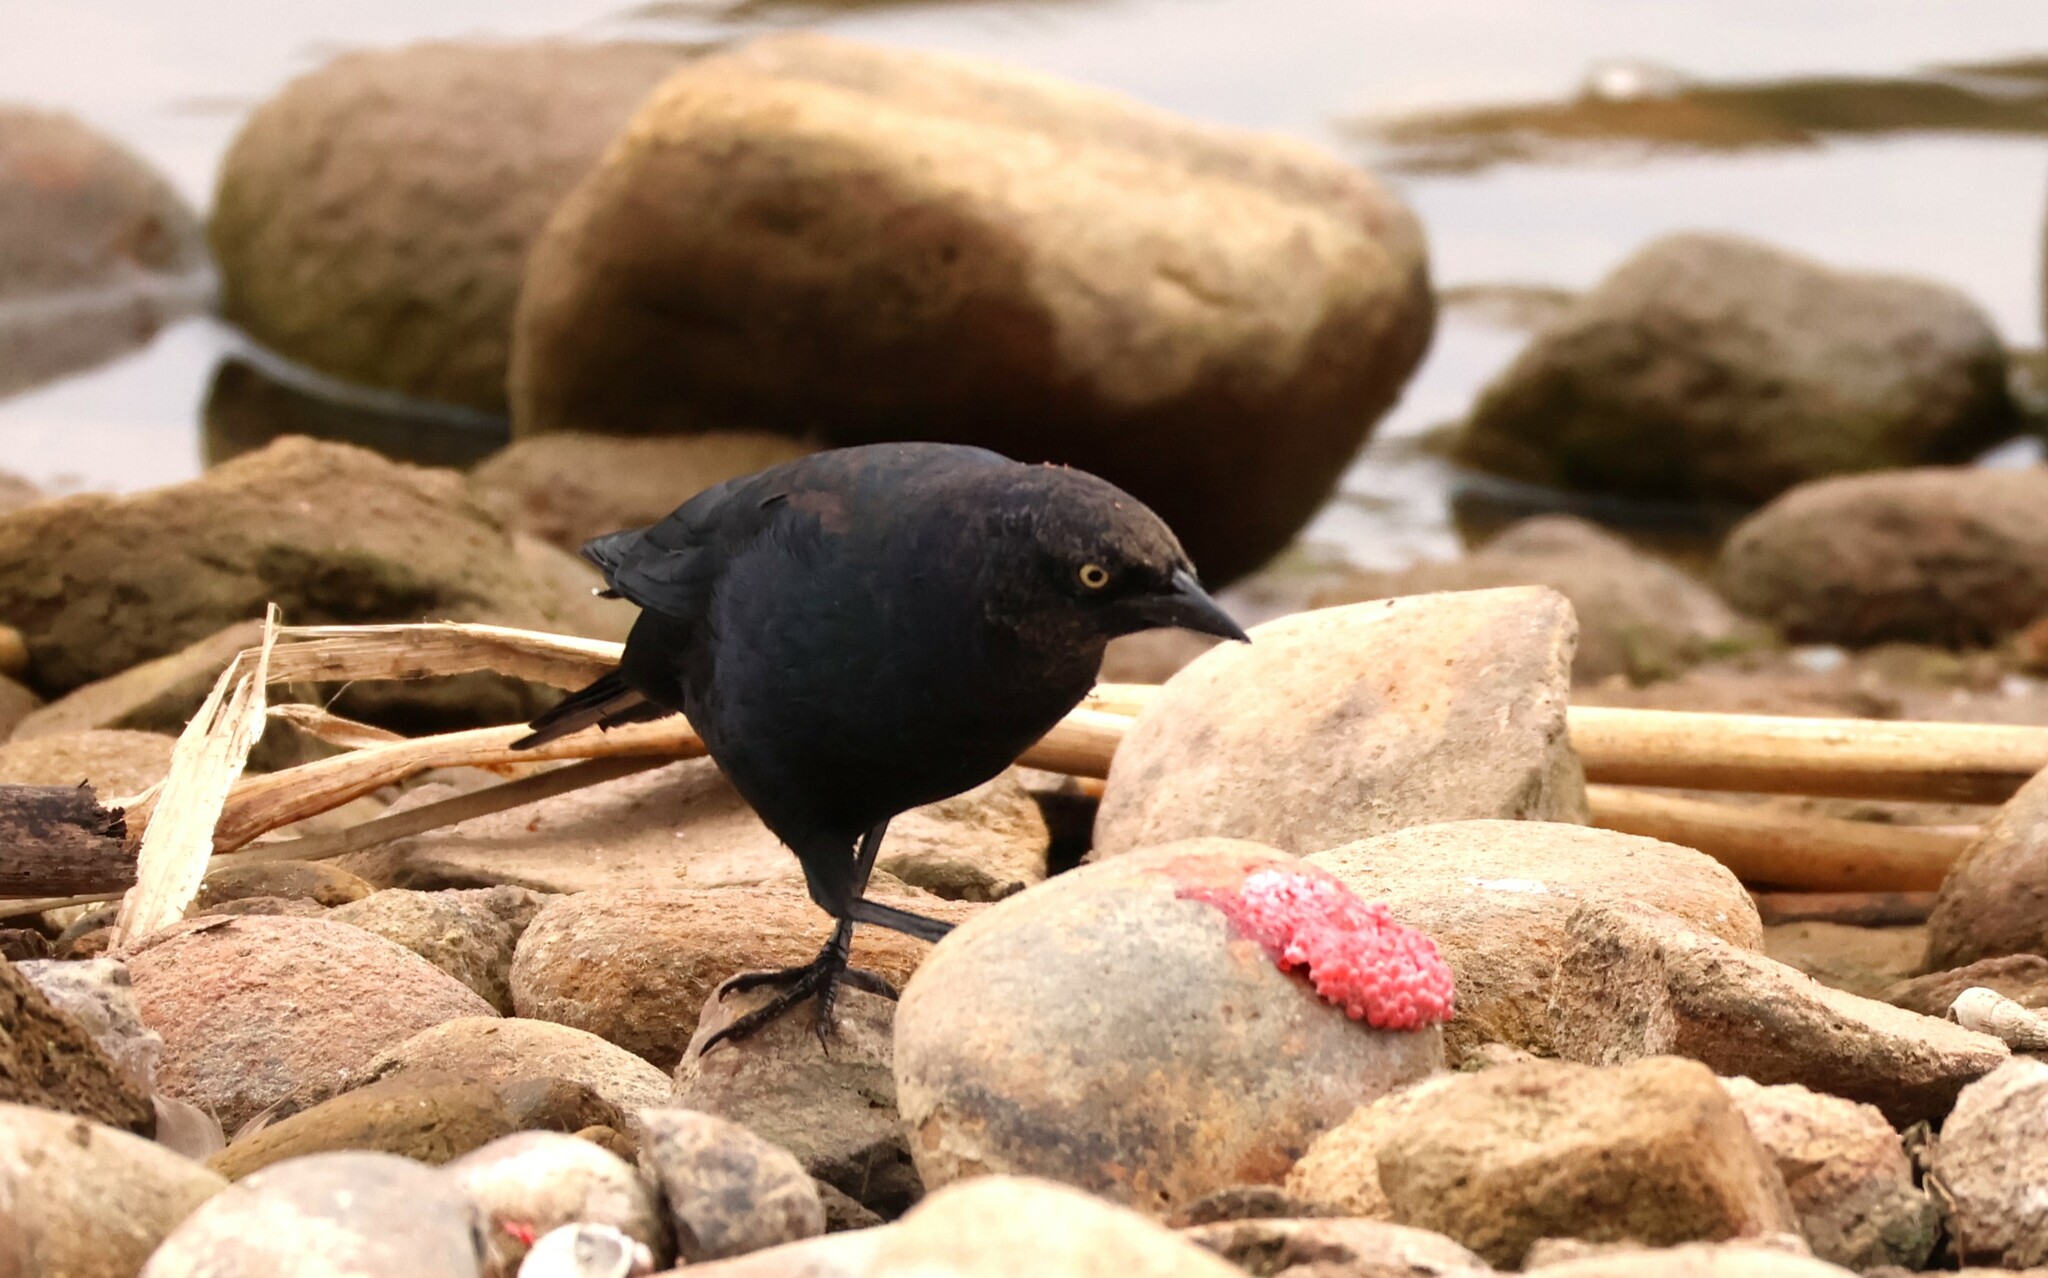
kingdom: Animalia
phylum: Chordata
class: Aves
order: Passeriformes
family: Icteridae
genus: Euphagus
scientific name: Euphagus cyanocephalus
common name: Brewer's blackbird
